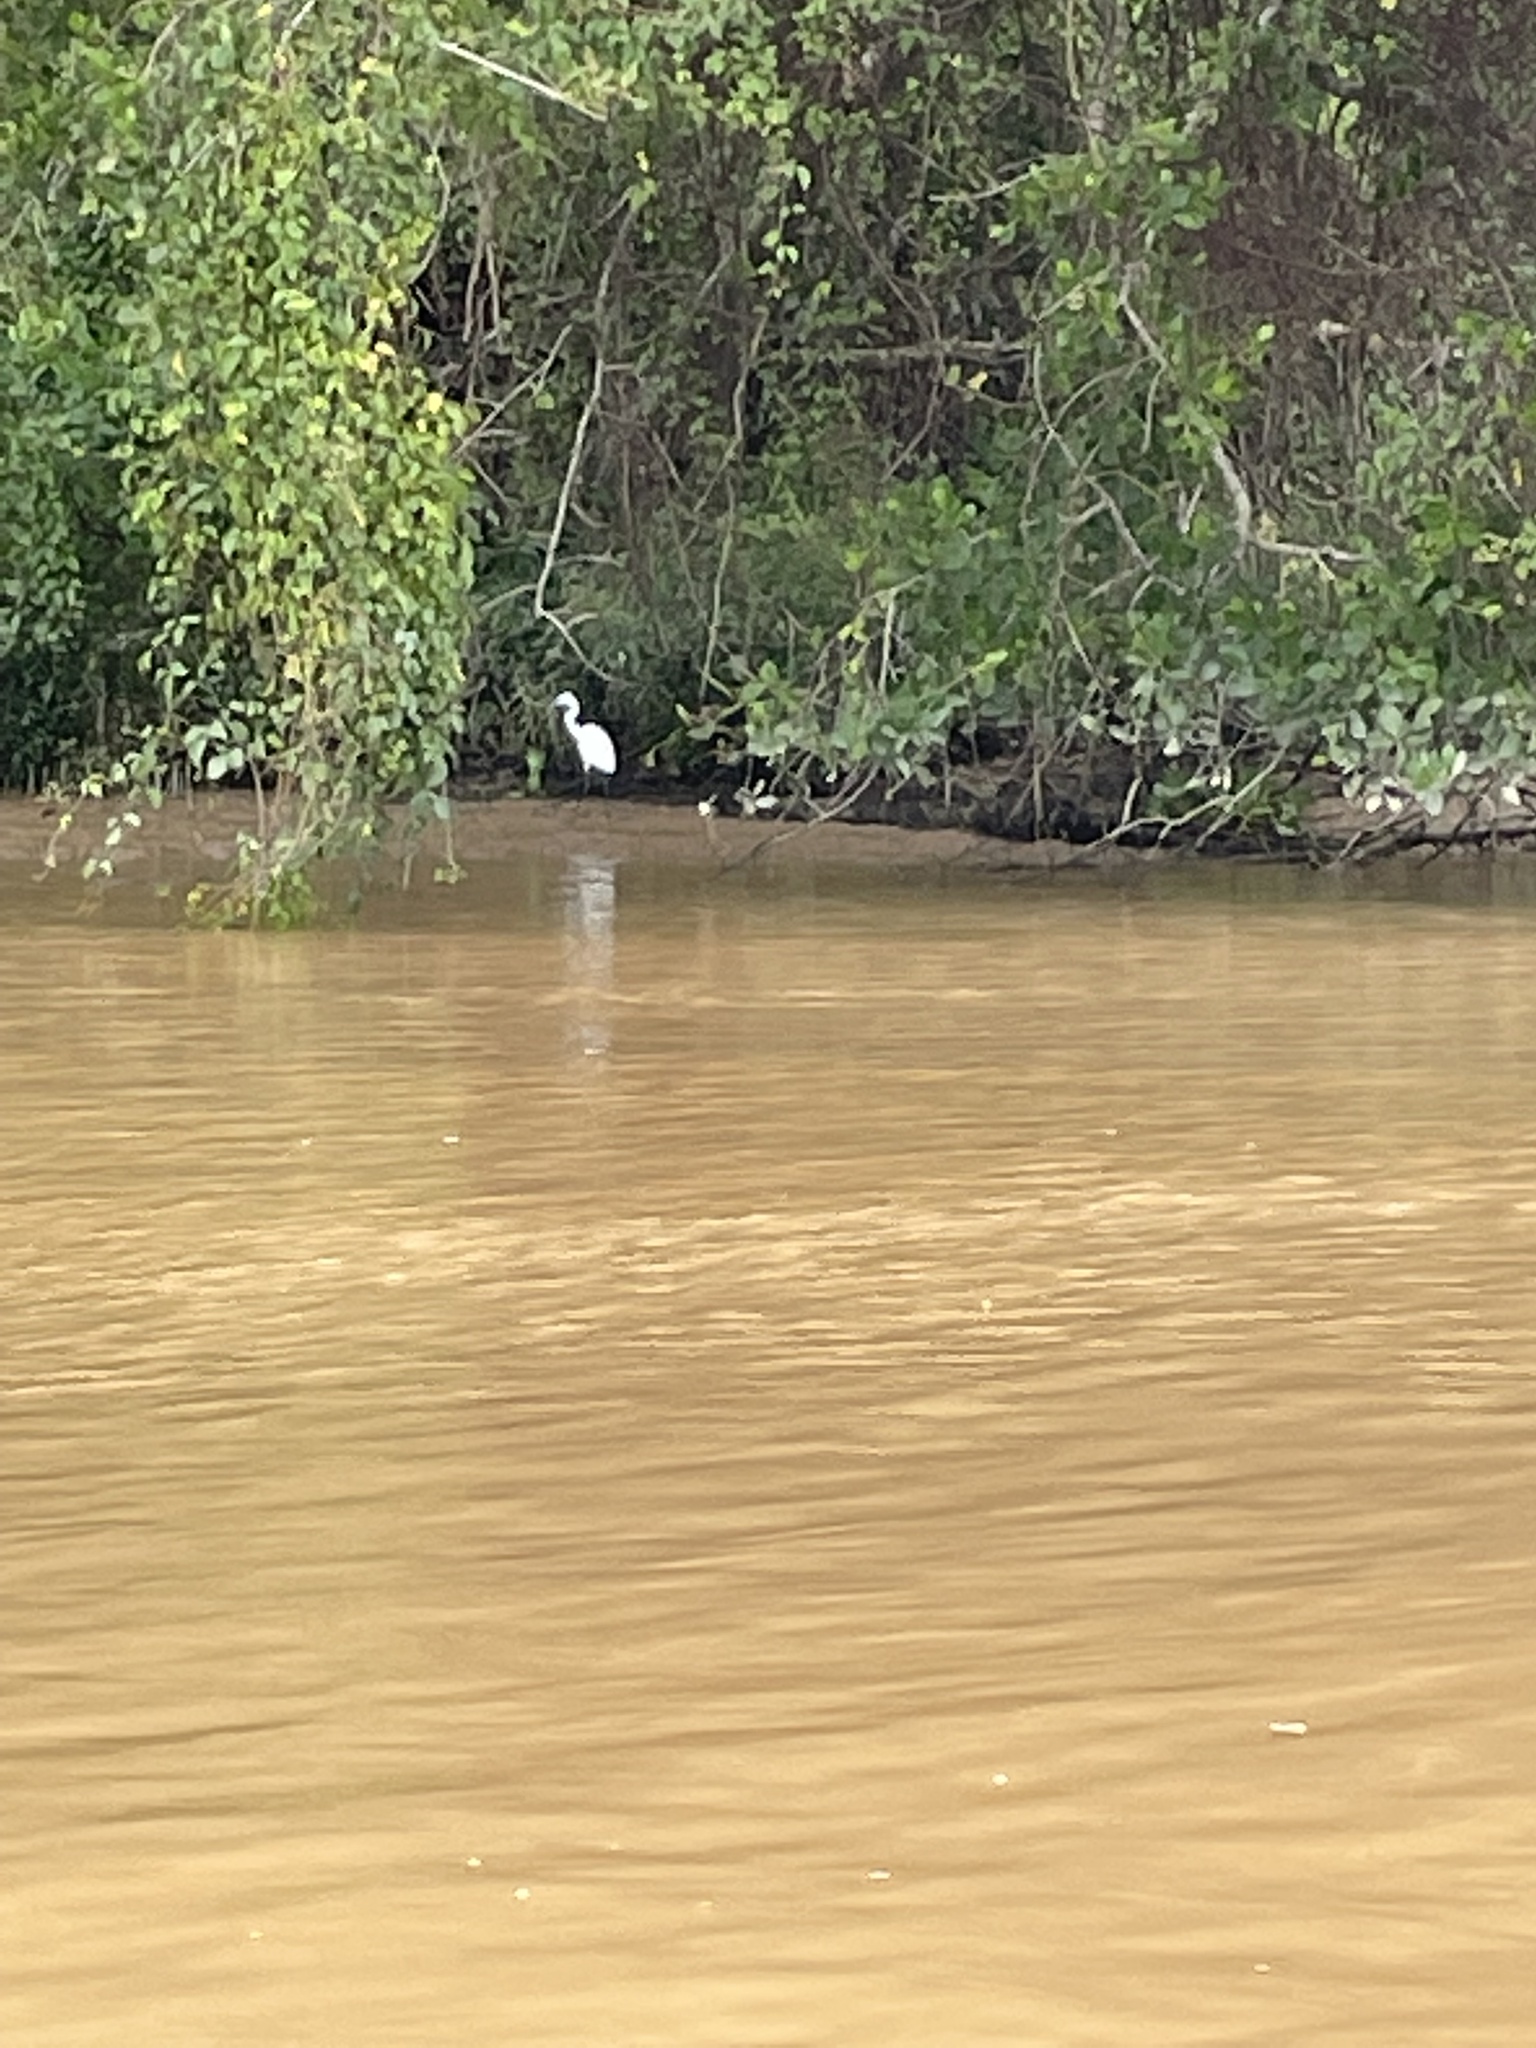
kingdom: Animalia
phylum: Chordata
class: Aves
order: Pelecaniformes
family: Ardeidae
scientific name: Ardeidae
